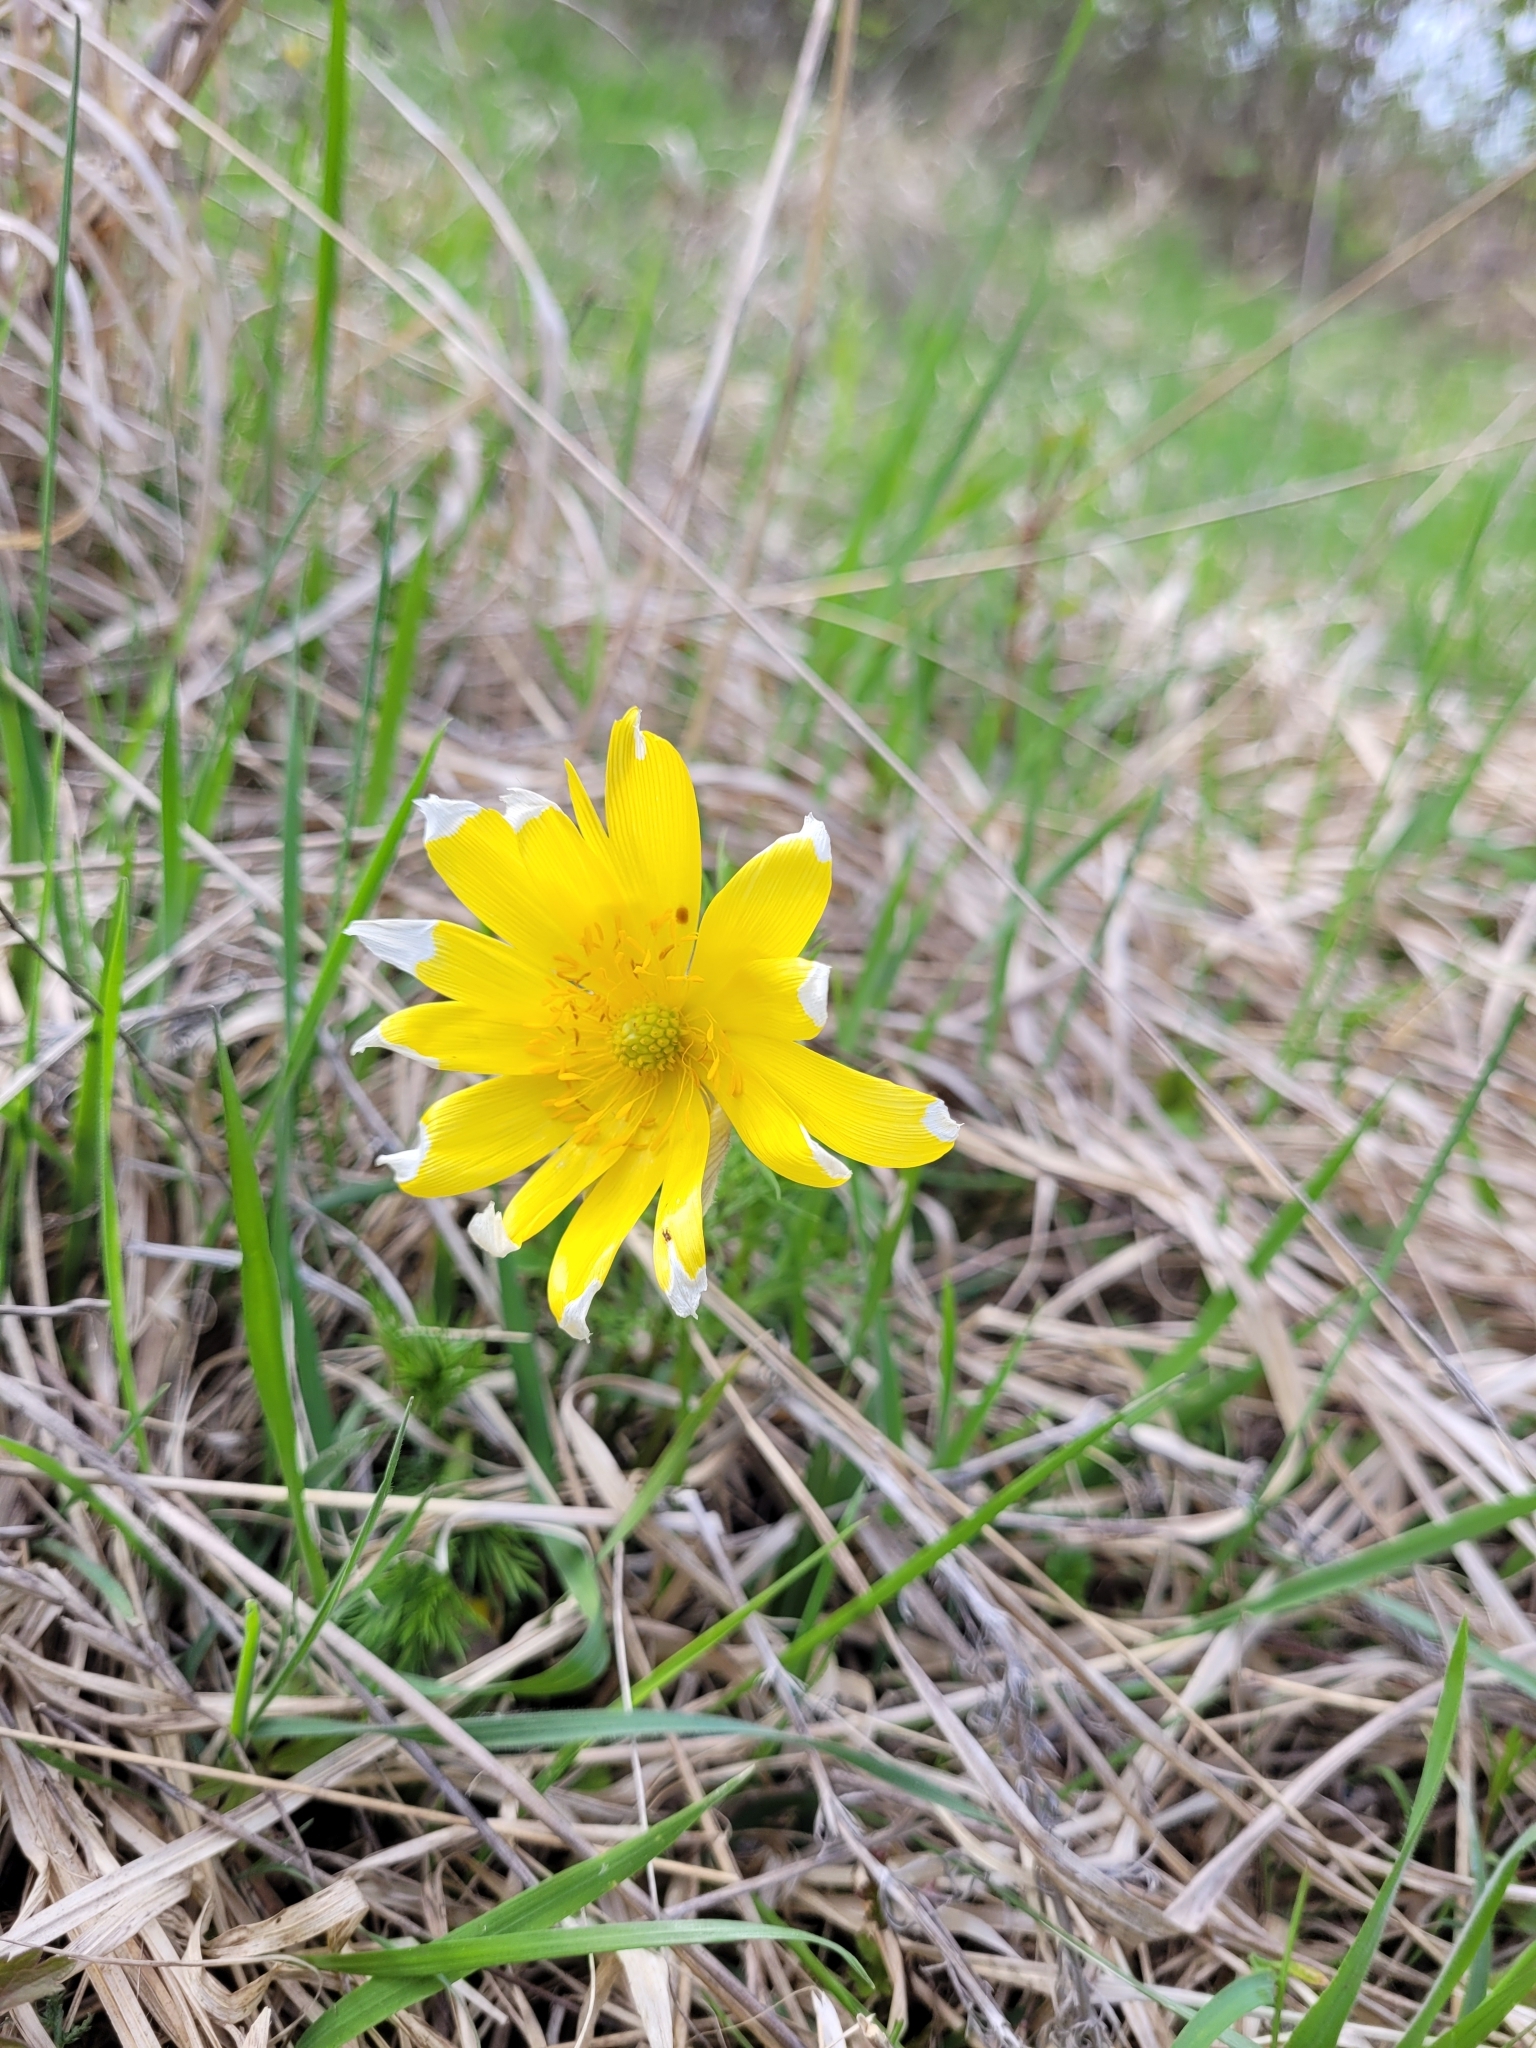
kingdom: Plantae
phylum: Tracheophyta
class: Magnoliopsida
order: Ranunculales
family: Ranunculaceae
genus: Adonis
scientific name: Adonis vernalis
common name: Yellow pheasants-eye
